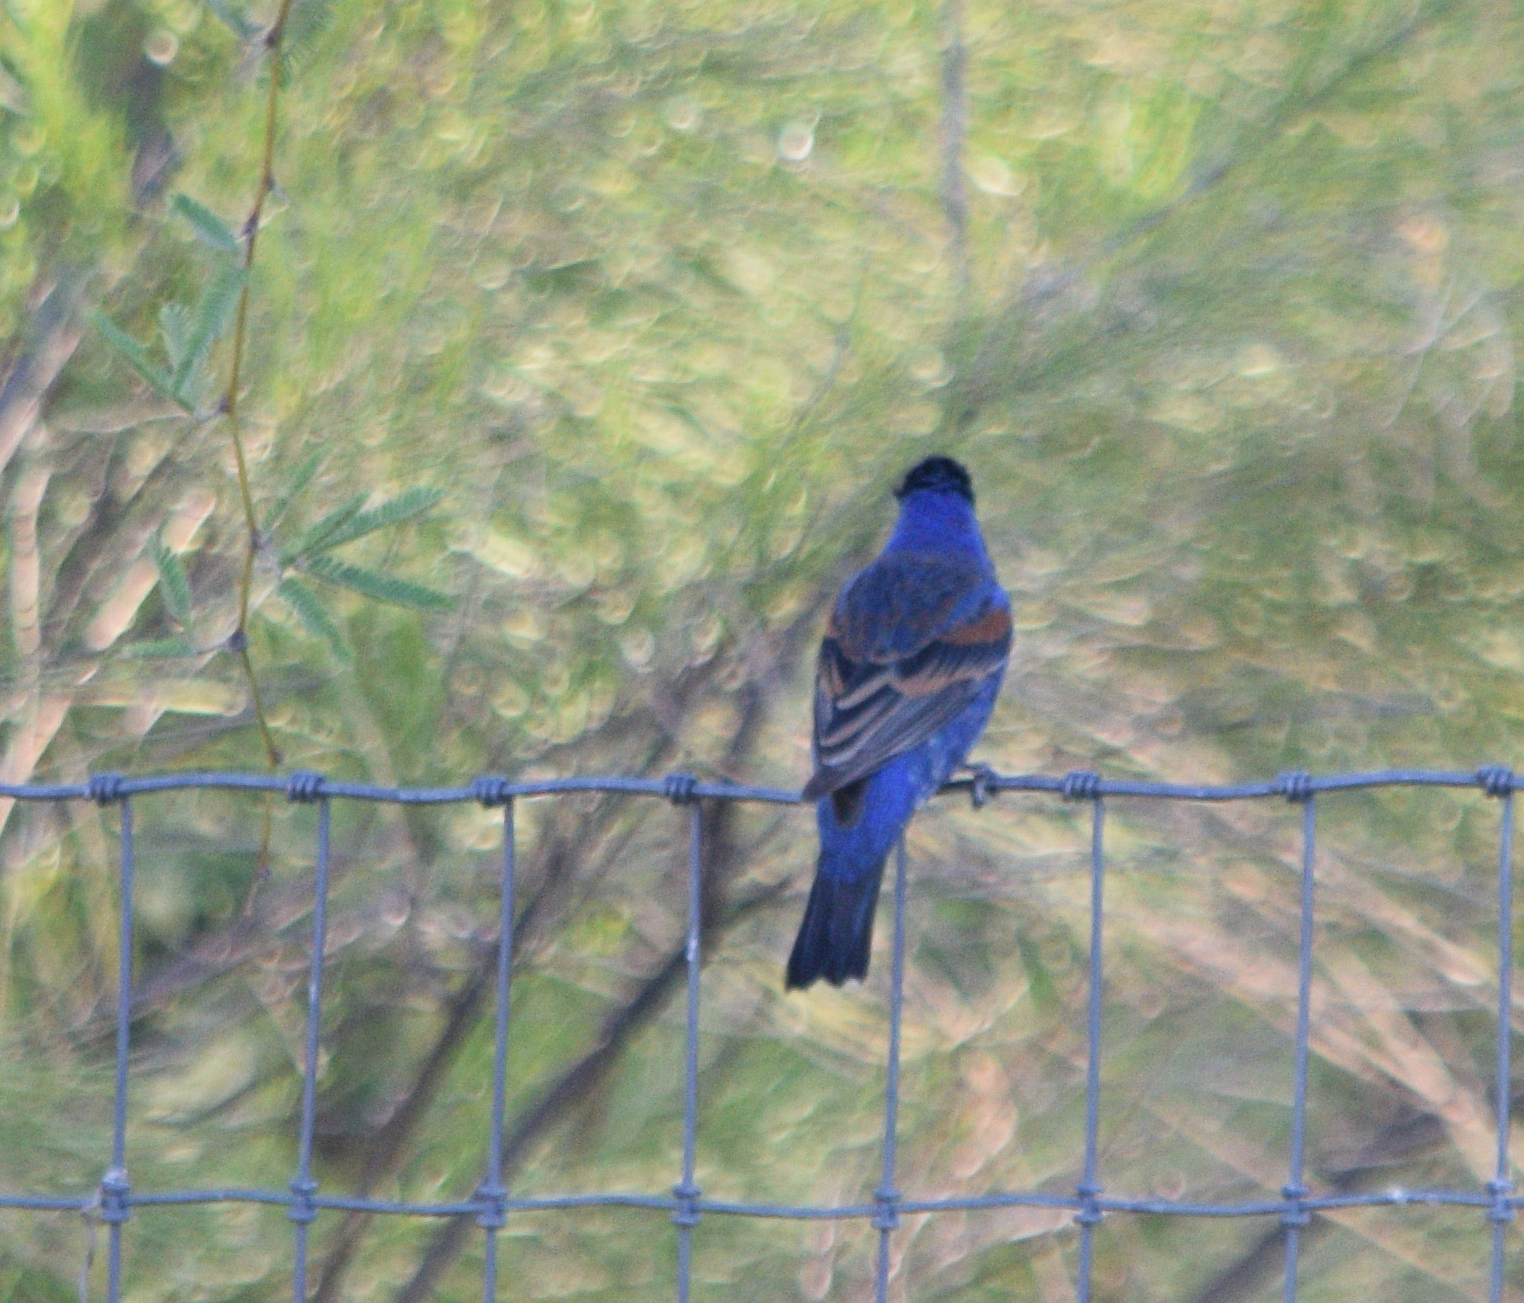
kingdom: Animalia
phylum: Chordata
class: Aves
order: Passeriformes
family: Cardinalidae
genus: Passerina
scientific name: Passerina caerulea
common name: Blue grosbeak
